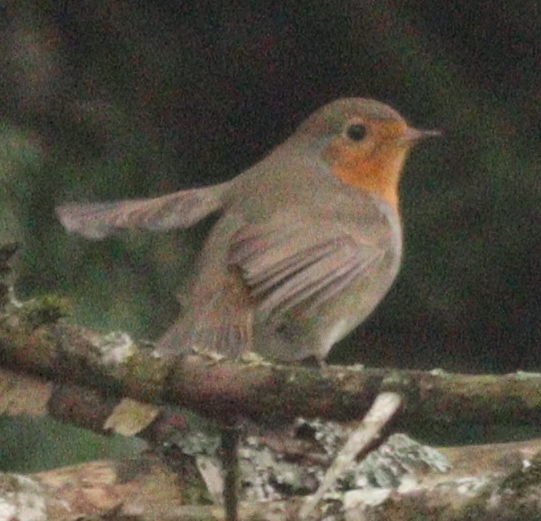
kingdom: Animalia
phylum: Chordata
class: Aves
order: Passeriformes
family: Muscicapidae
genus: Erithacus
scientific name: Erithacus rubecula
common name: European robin
